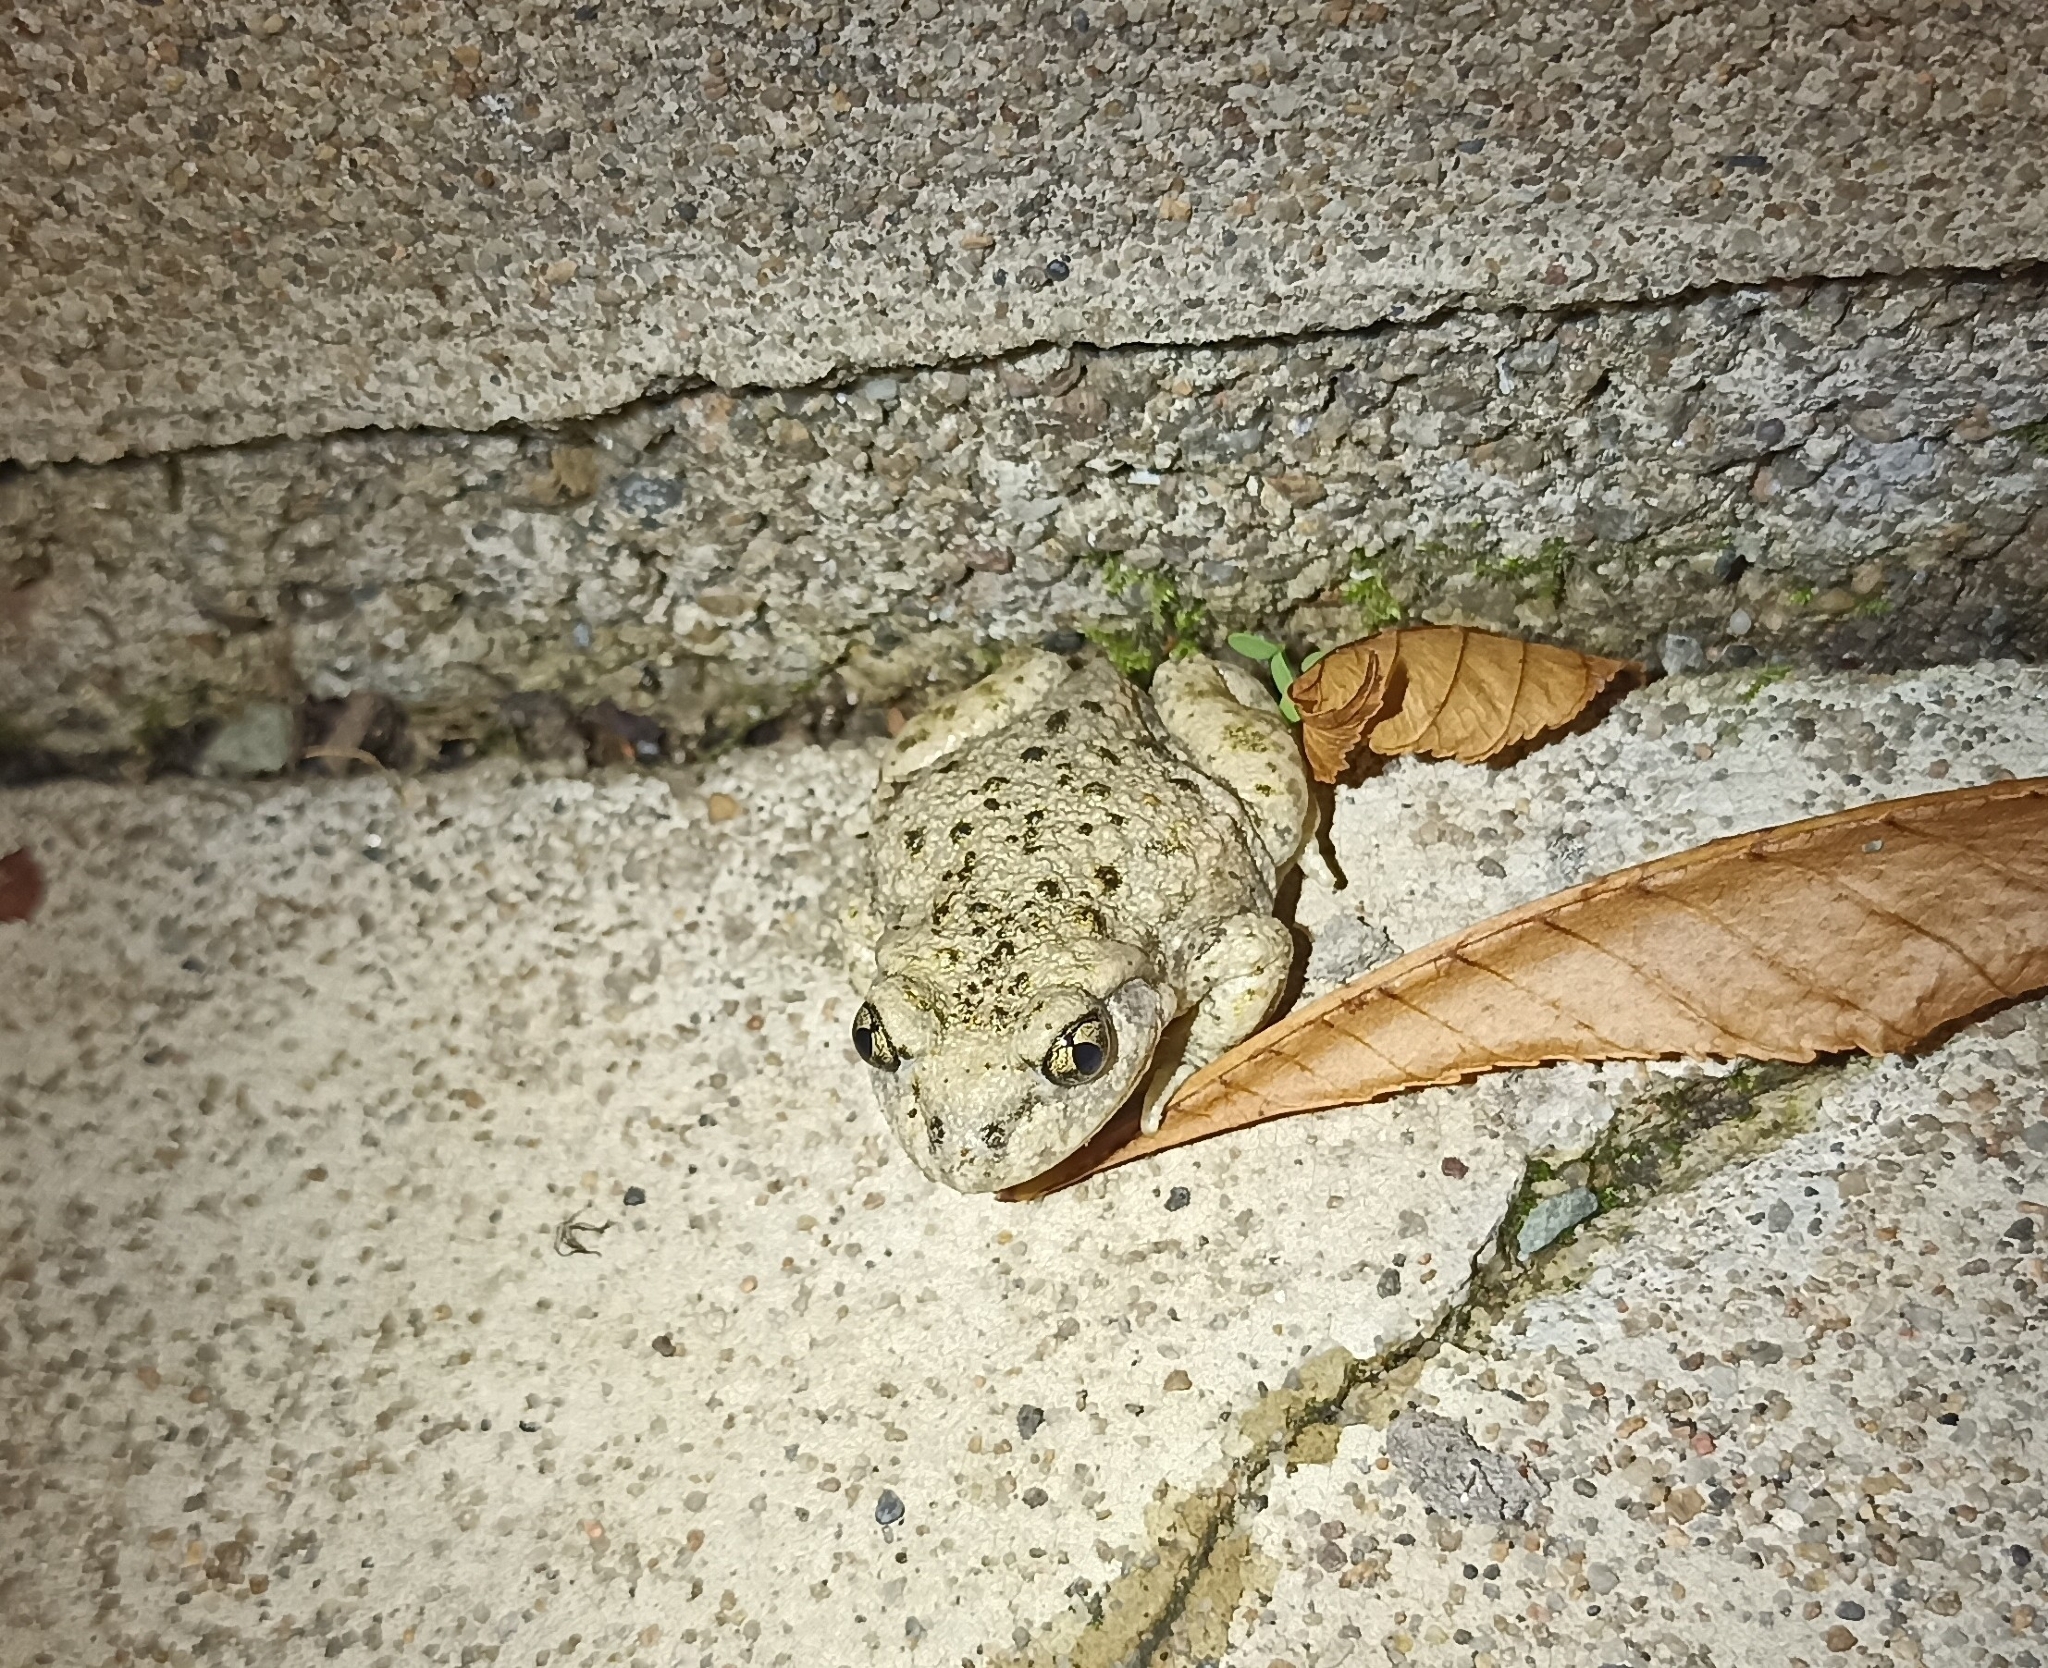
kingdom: Animalia
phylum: Chordata
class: Amphibia
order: Anura
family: Alytidae
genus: Alytes
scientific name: Alytes obstetricans
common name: Midwife toad
